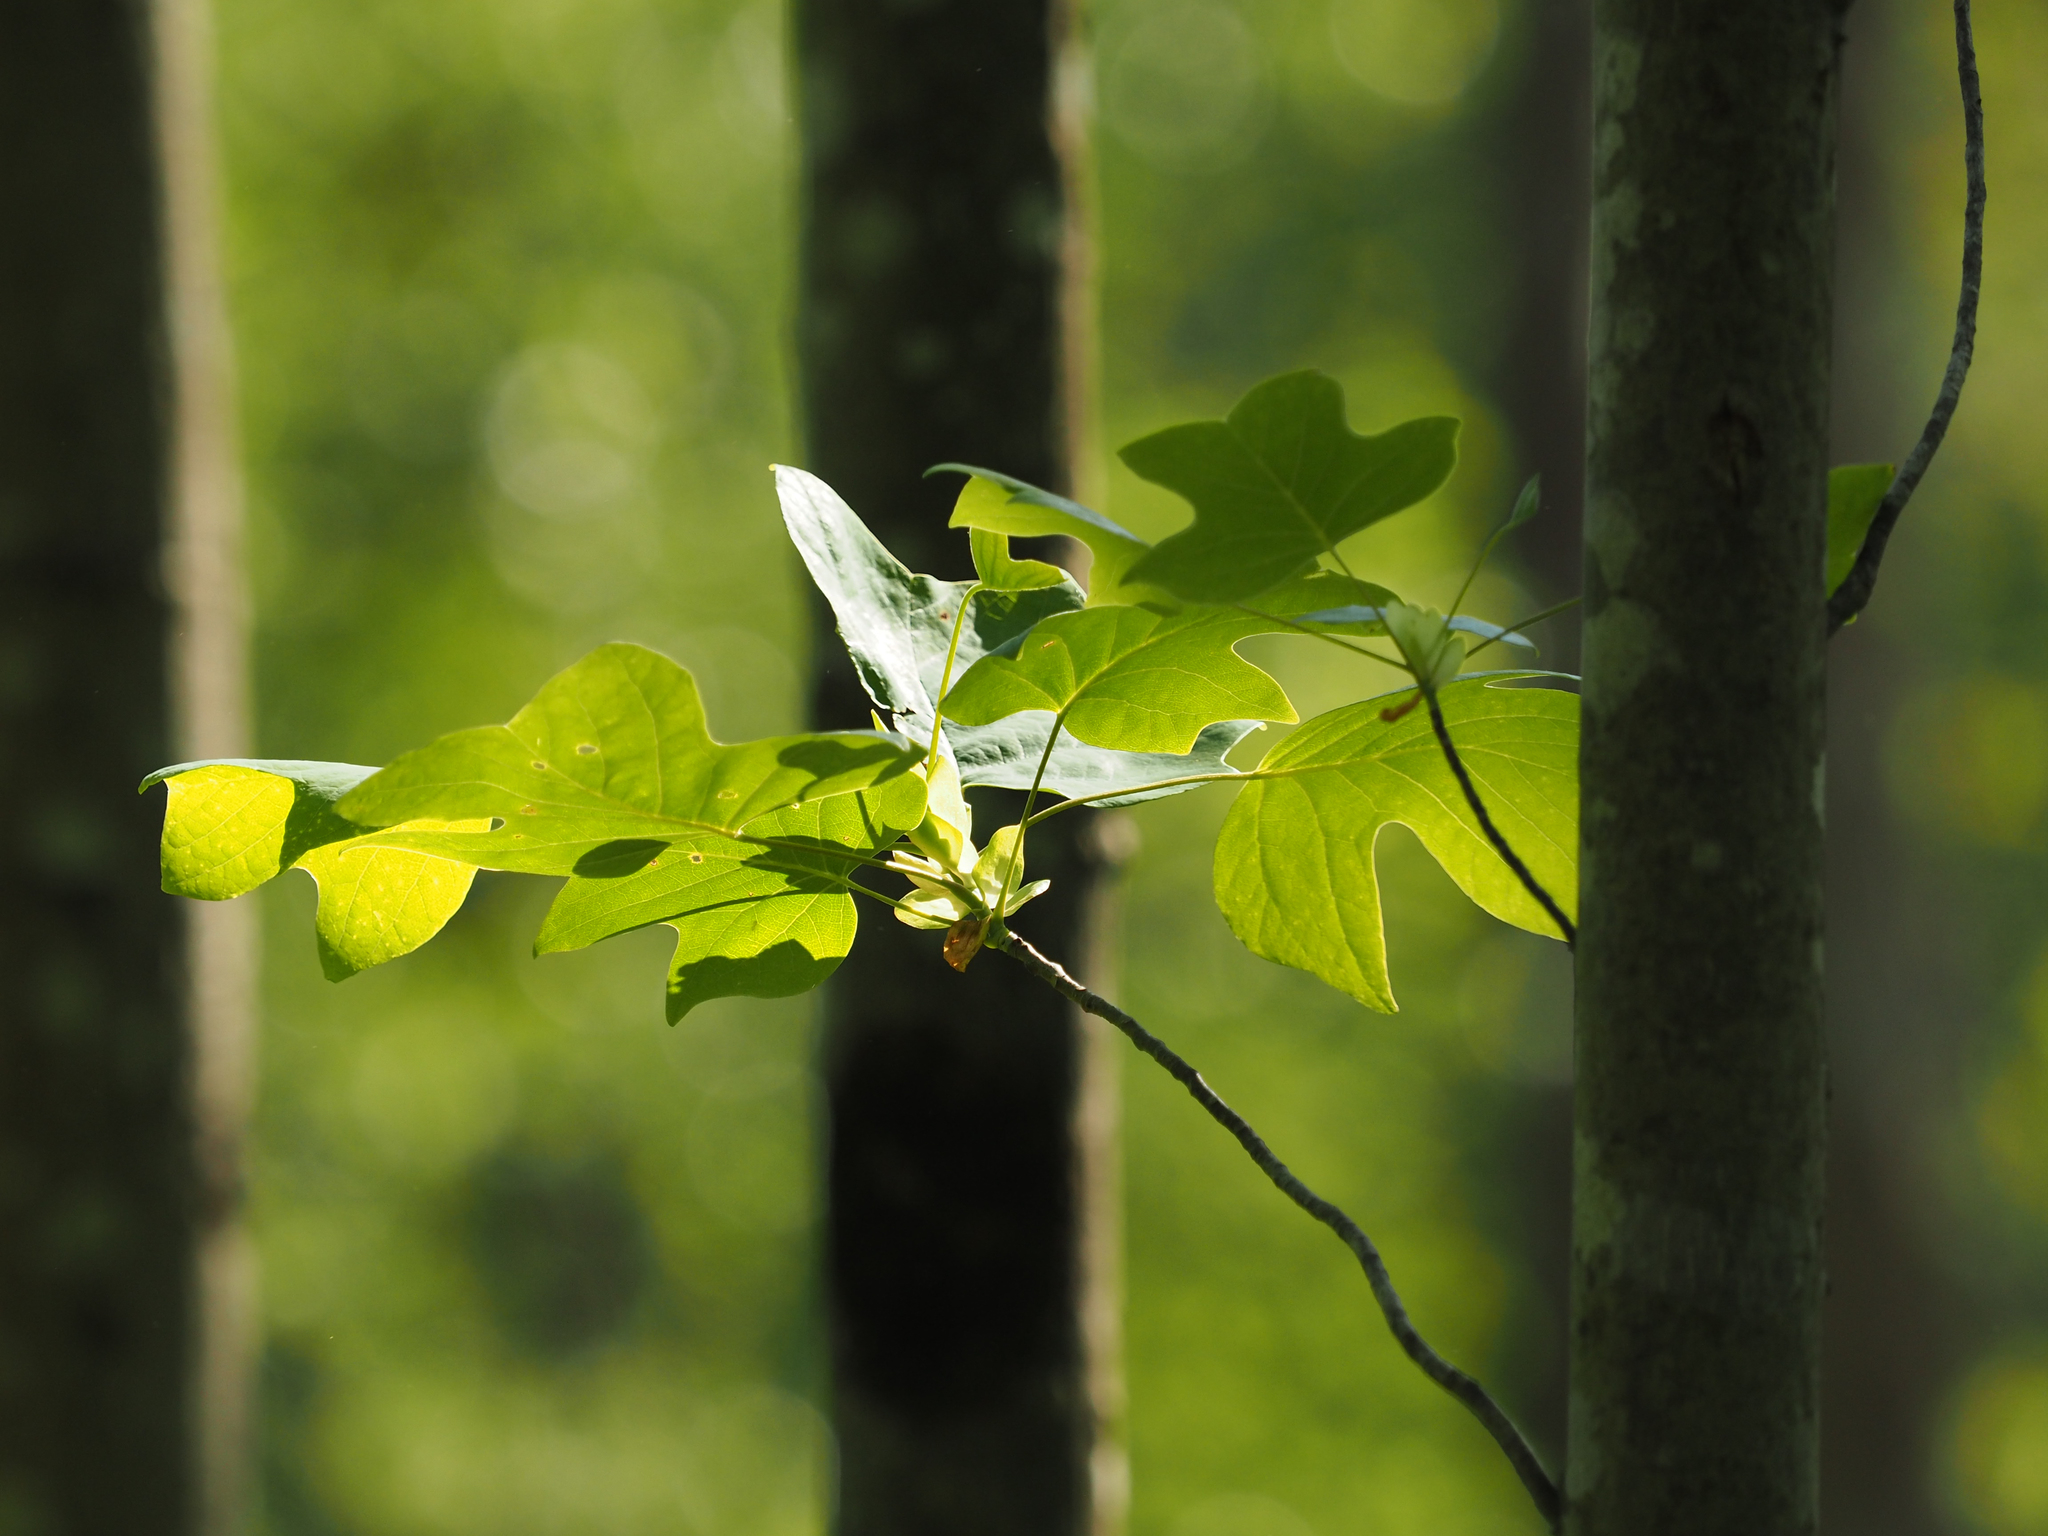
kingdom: Plantae
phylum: Tracheophyta
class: Magnoliopsida
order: Magnoliales
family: Magnoliaceae
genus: Liriodendron
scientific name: Liriodendron tulipifera
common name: Tulip tree
